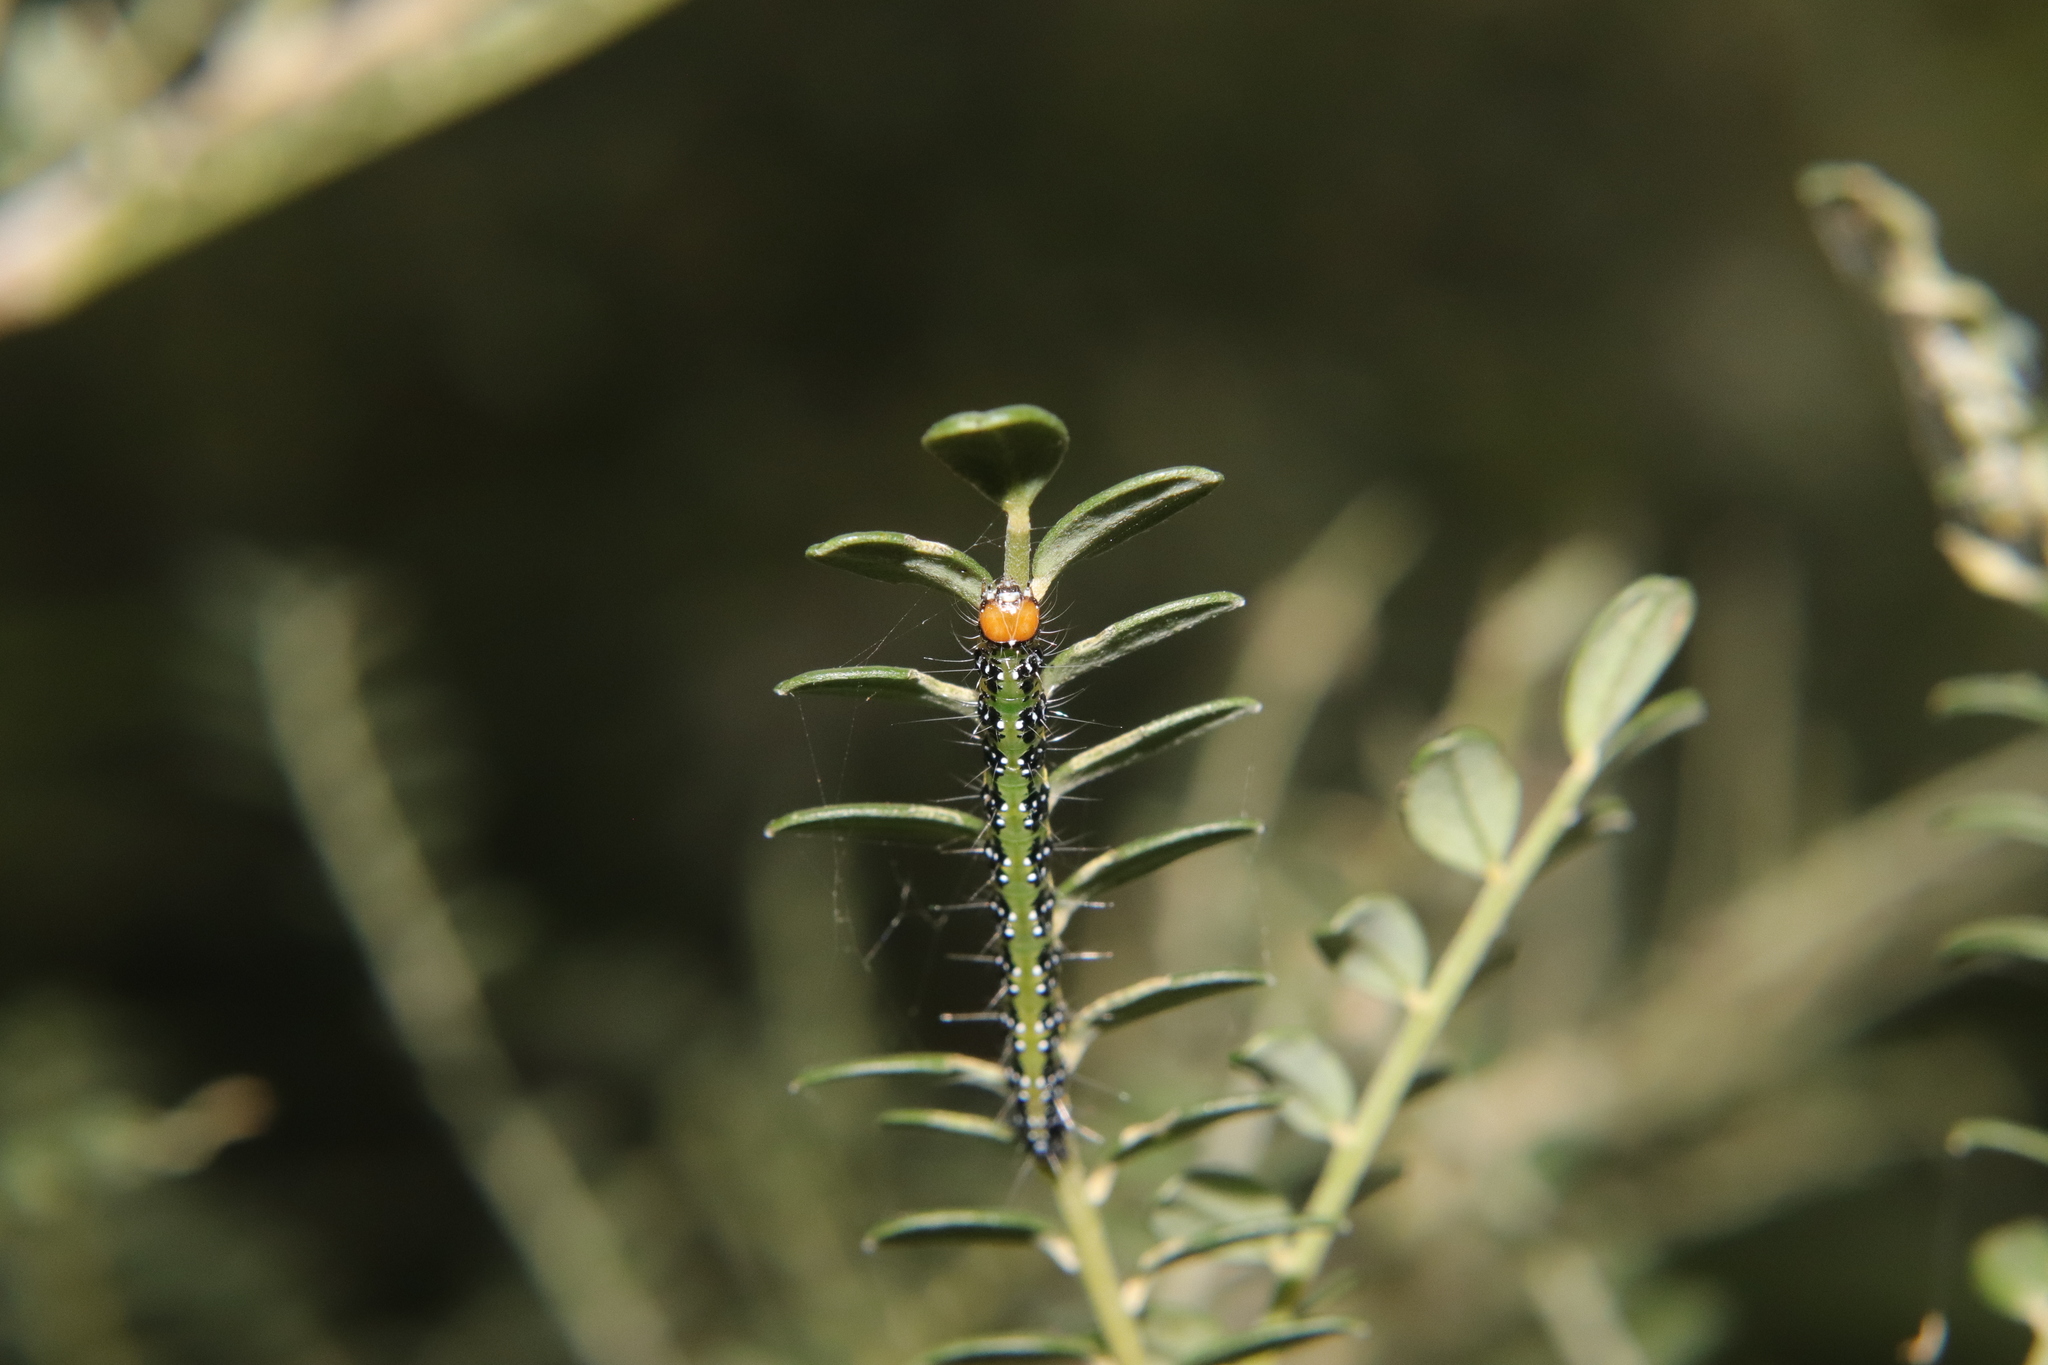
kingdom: Animalia
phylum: Arthropoda
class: Insecta
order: Lepidoptera
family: Crambidae
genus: Uresiphita
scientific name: Uresiphita
